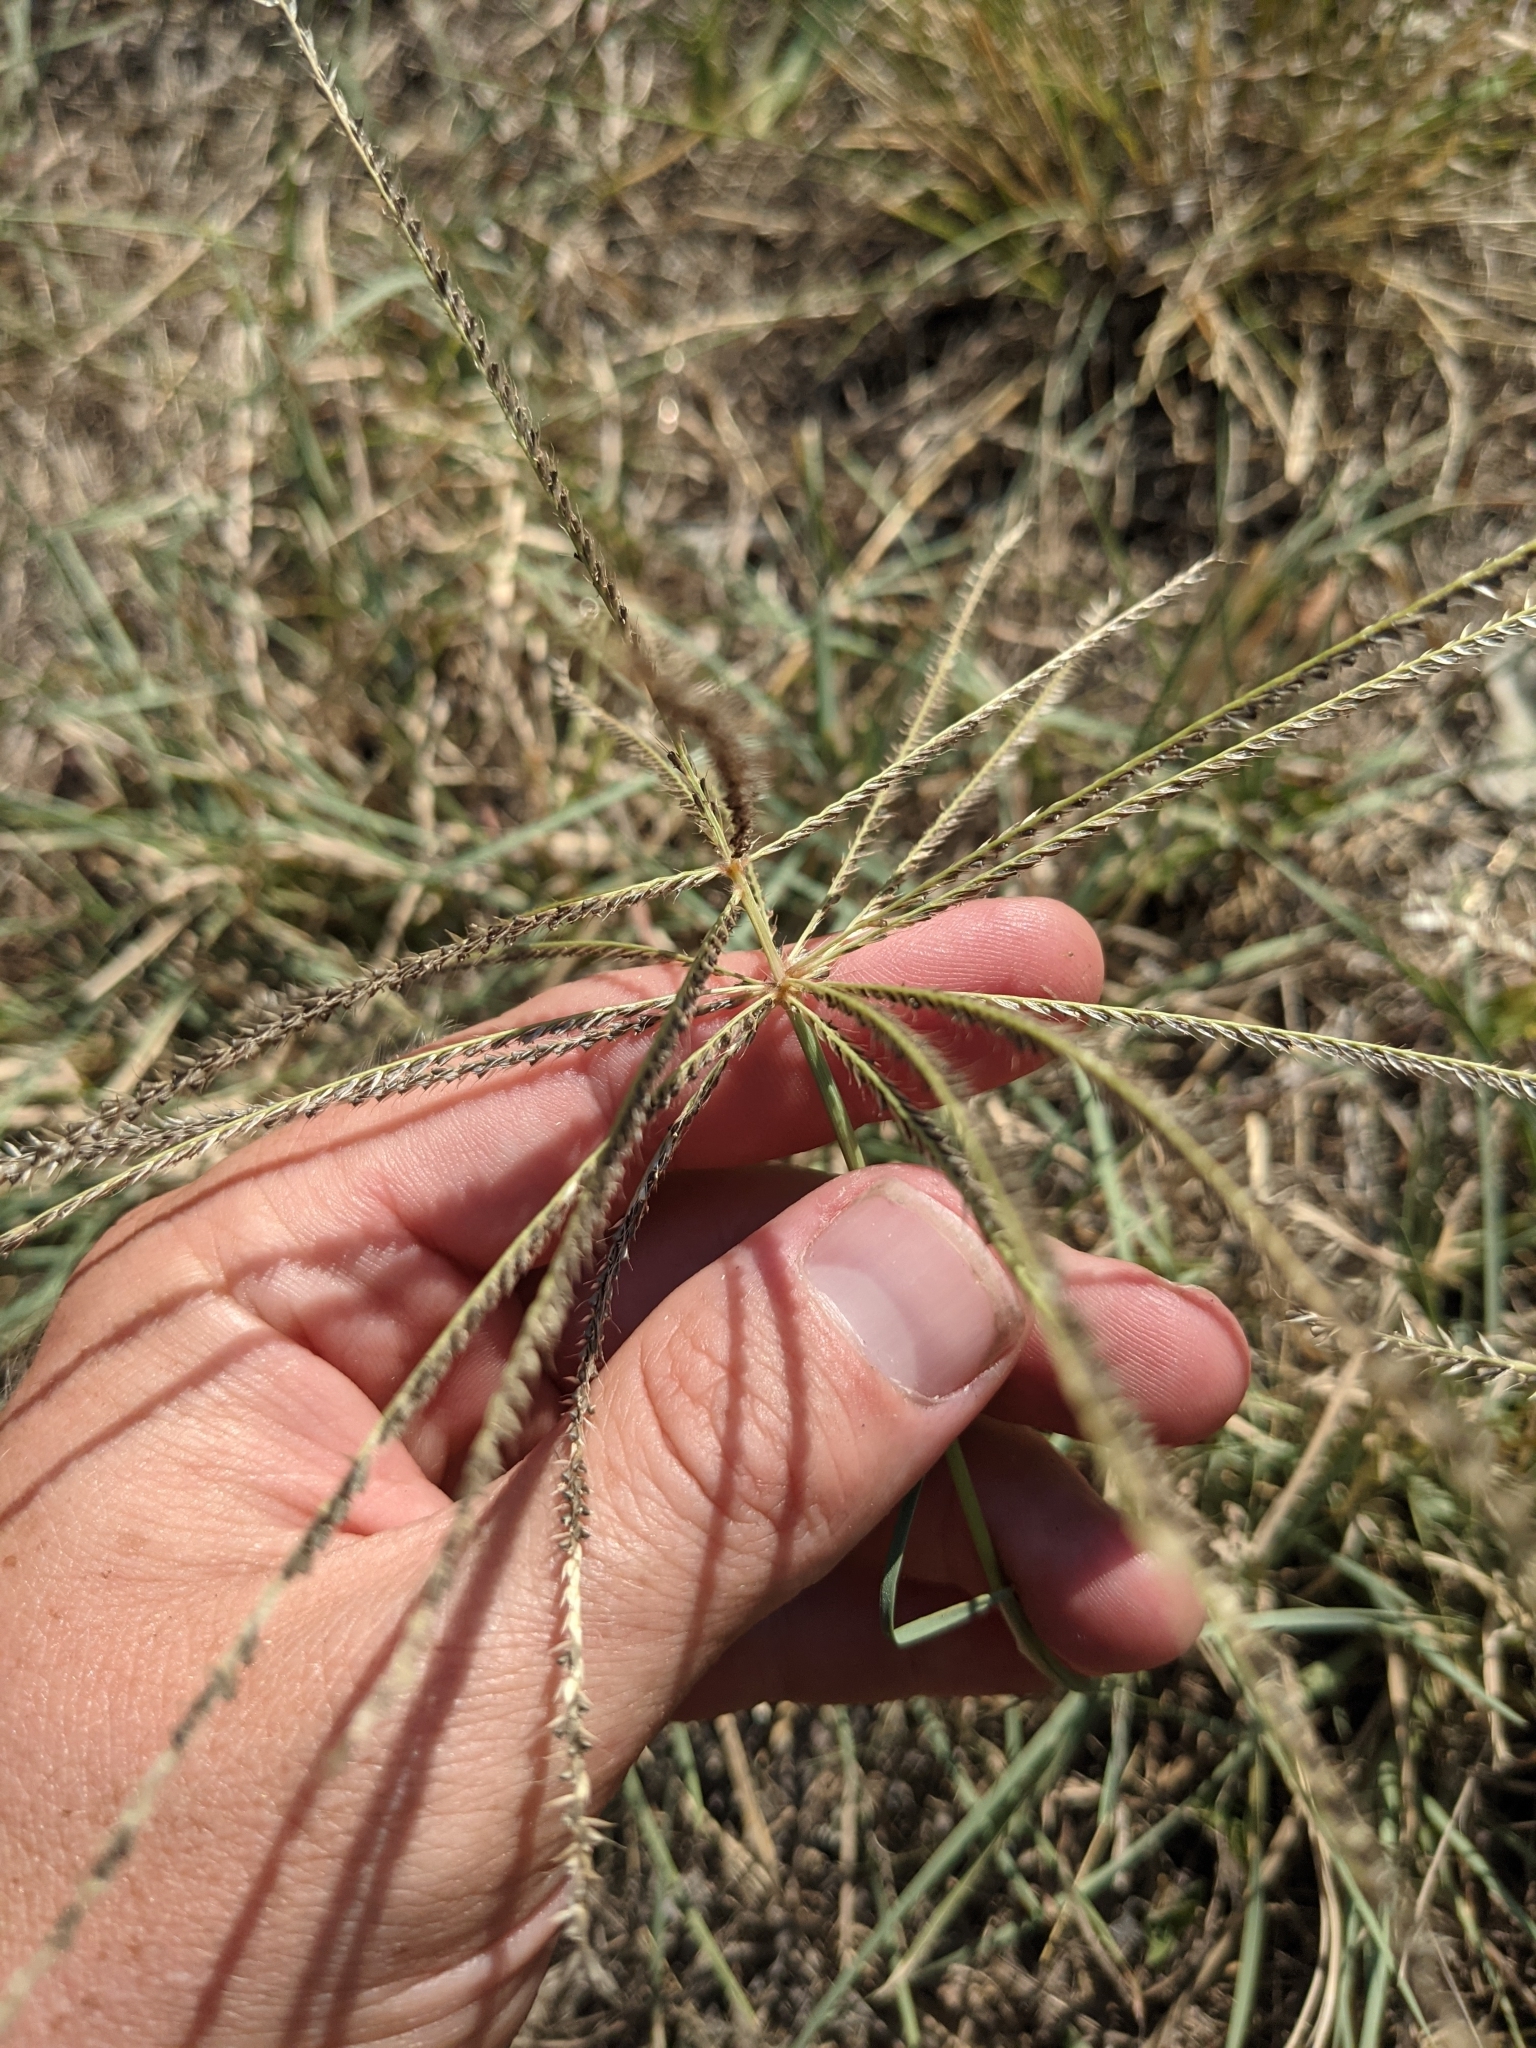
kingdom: Plantae
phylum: Tracheophyta
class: Liliopsida
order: Poales
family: Poaceae
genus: Chloris
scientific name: Chloris verticillata
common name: Tumble windmill grass
